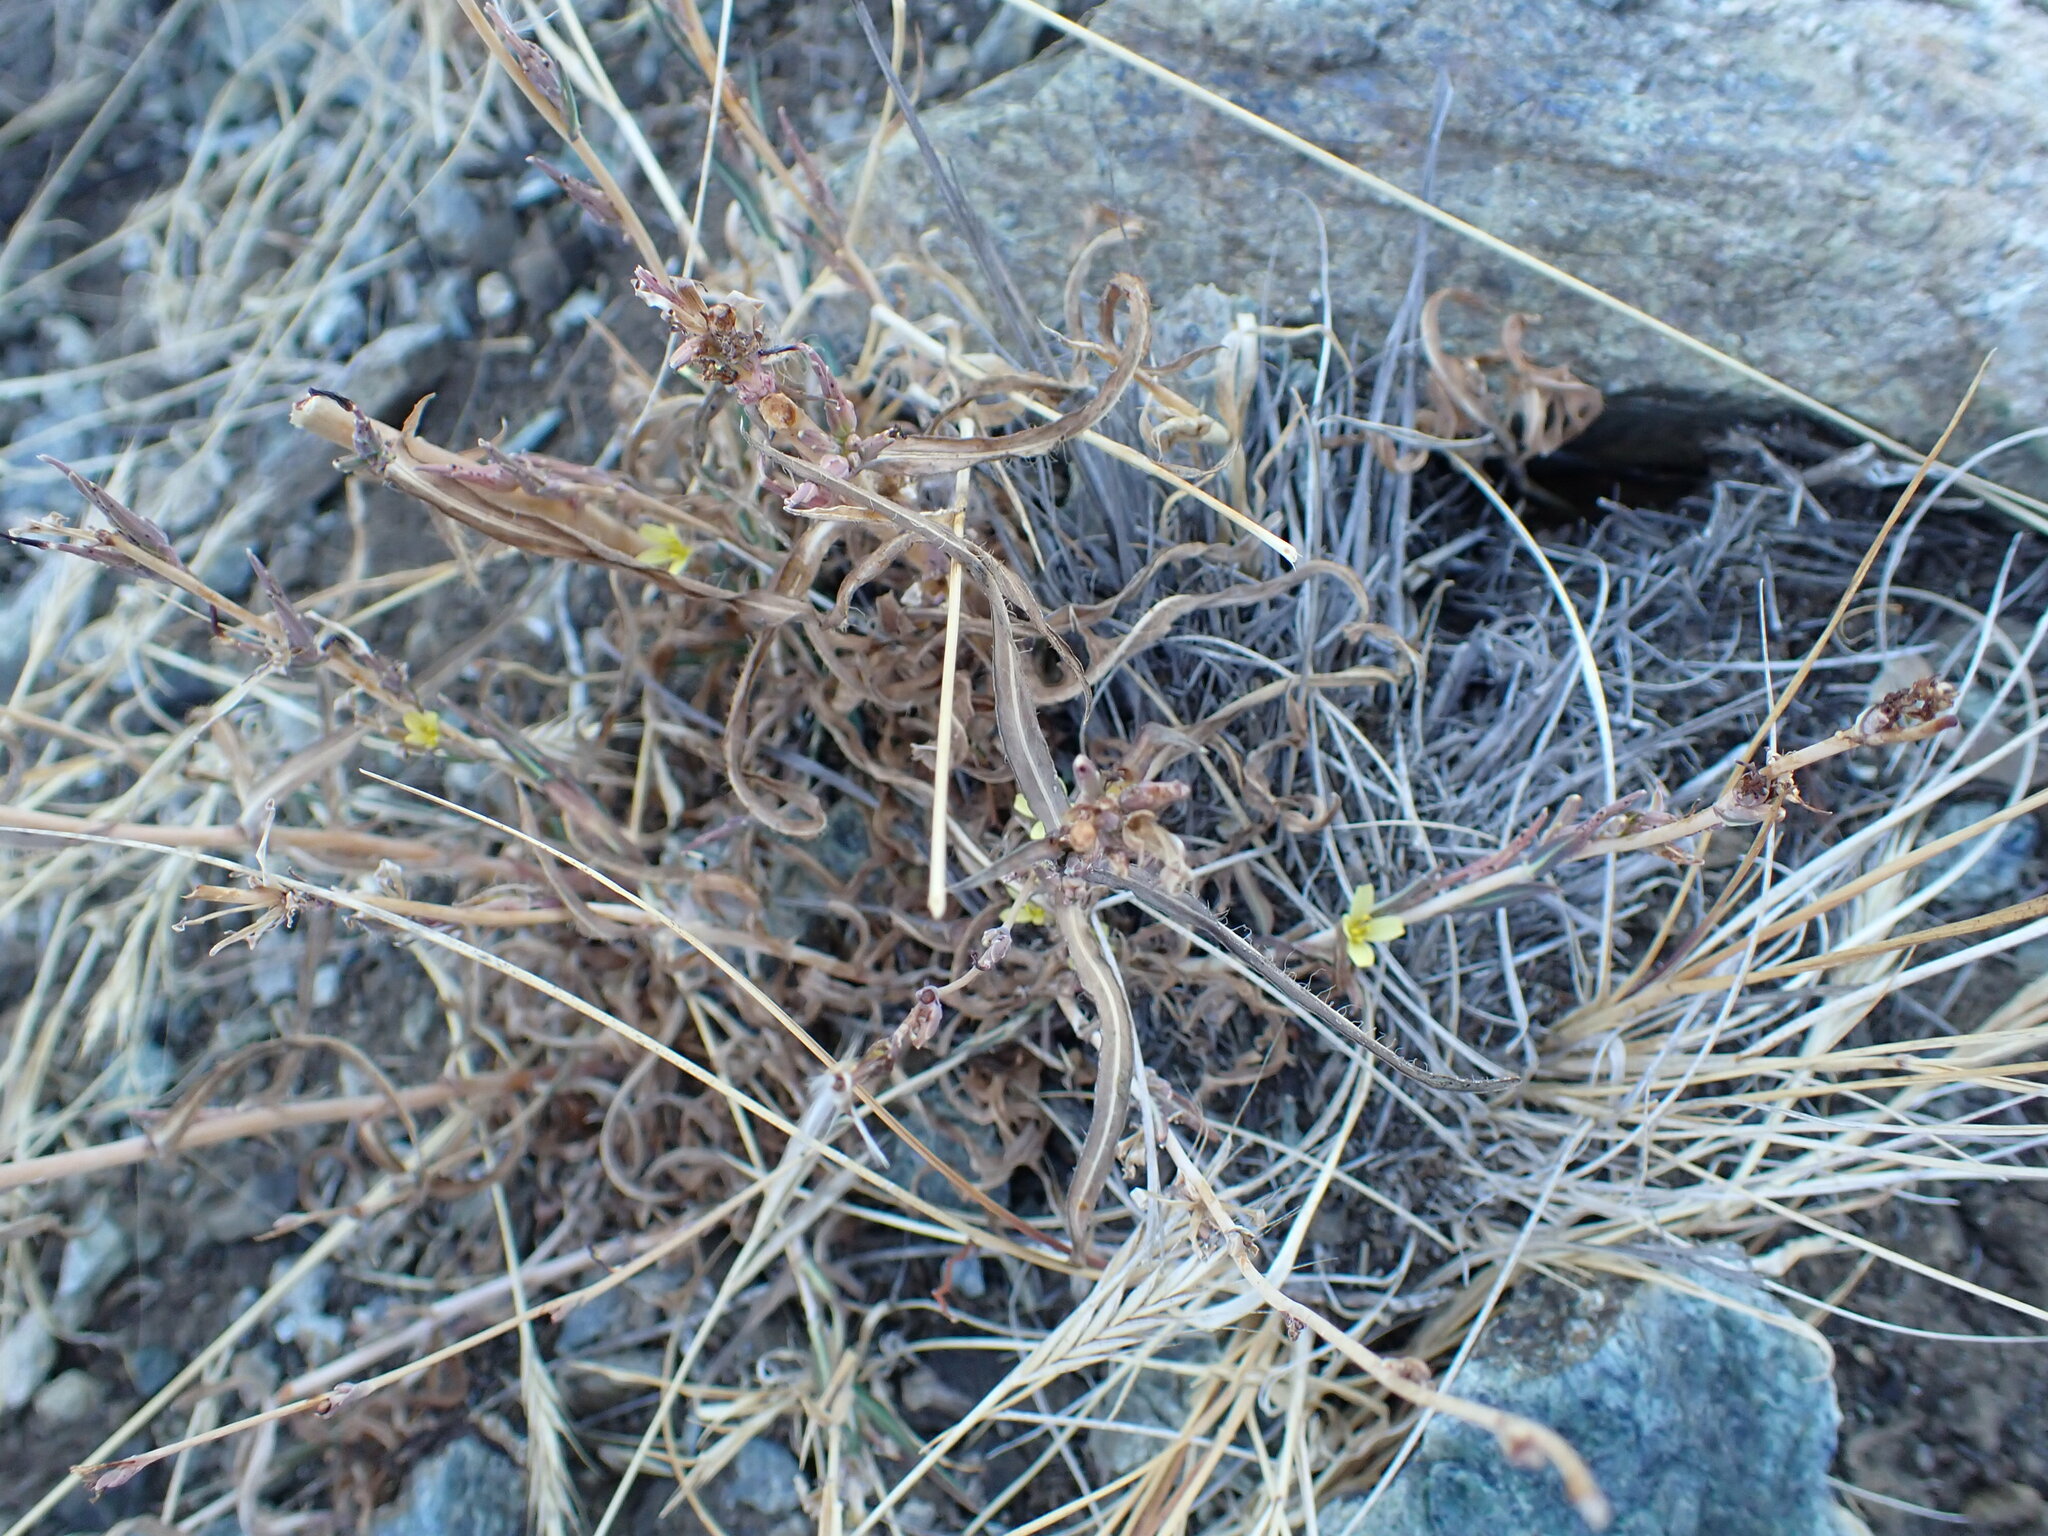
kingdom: Plantae
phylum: Tracheophyta
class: Magnoliopsida
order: Asterales
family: Asteraceae
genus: Lactuca
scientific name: Lactuca saligna
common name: Wild lettuce
